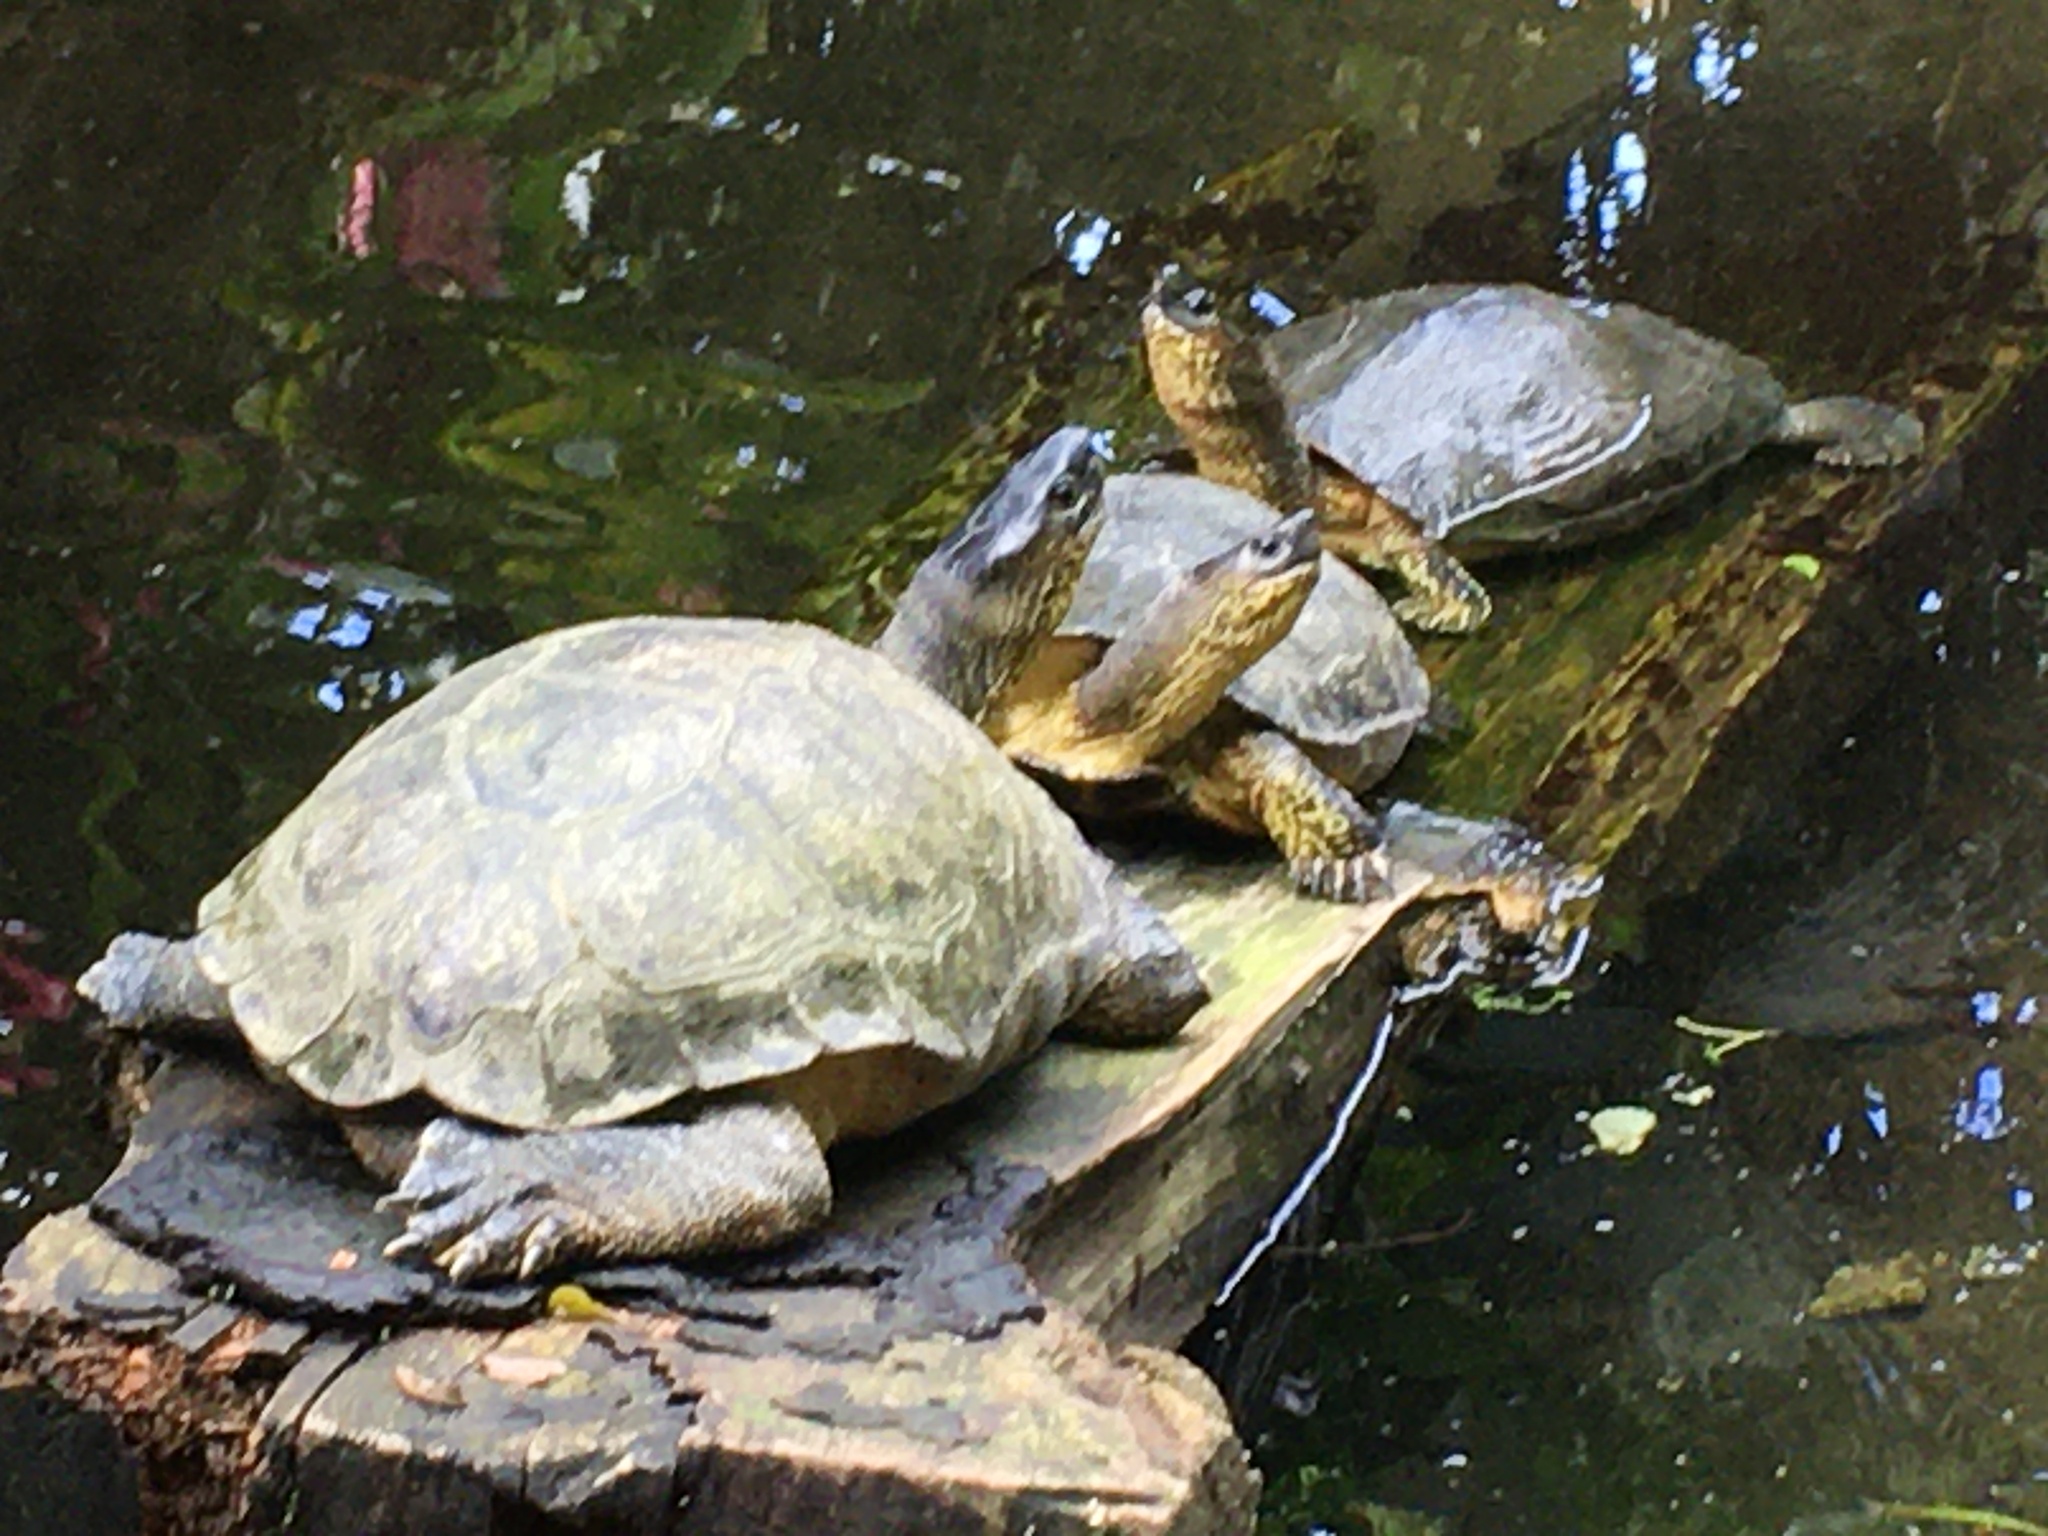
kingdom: Animalia
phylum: Chordata
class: Testudines
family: Geoemydidae
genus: Rhinoclemmys
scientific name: Rhinoclemmys funerea
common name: Black wood turtle
